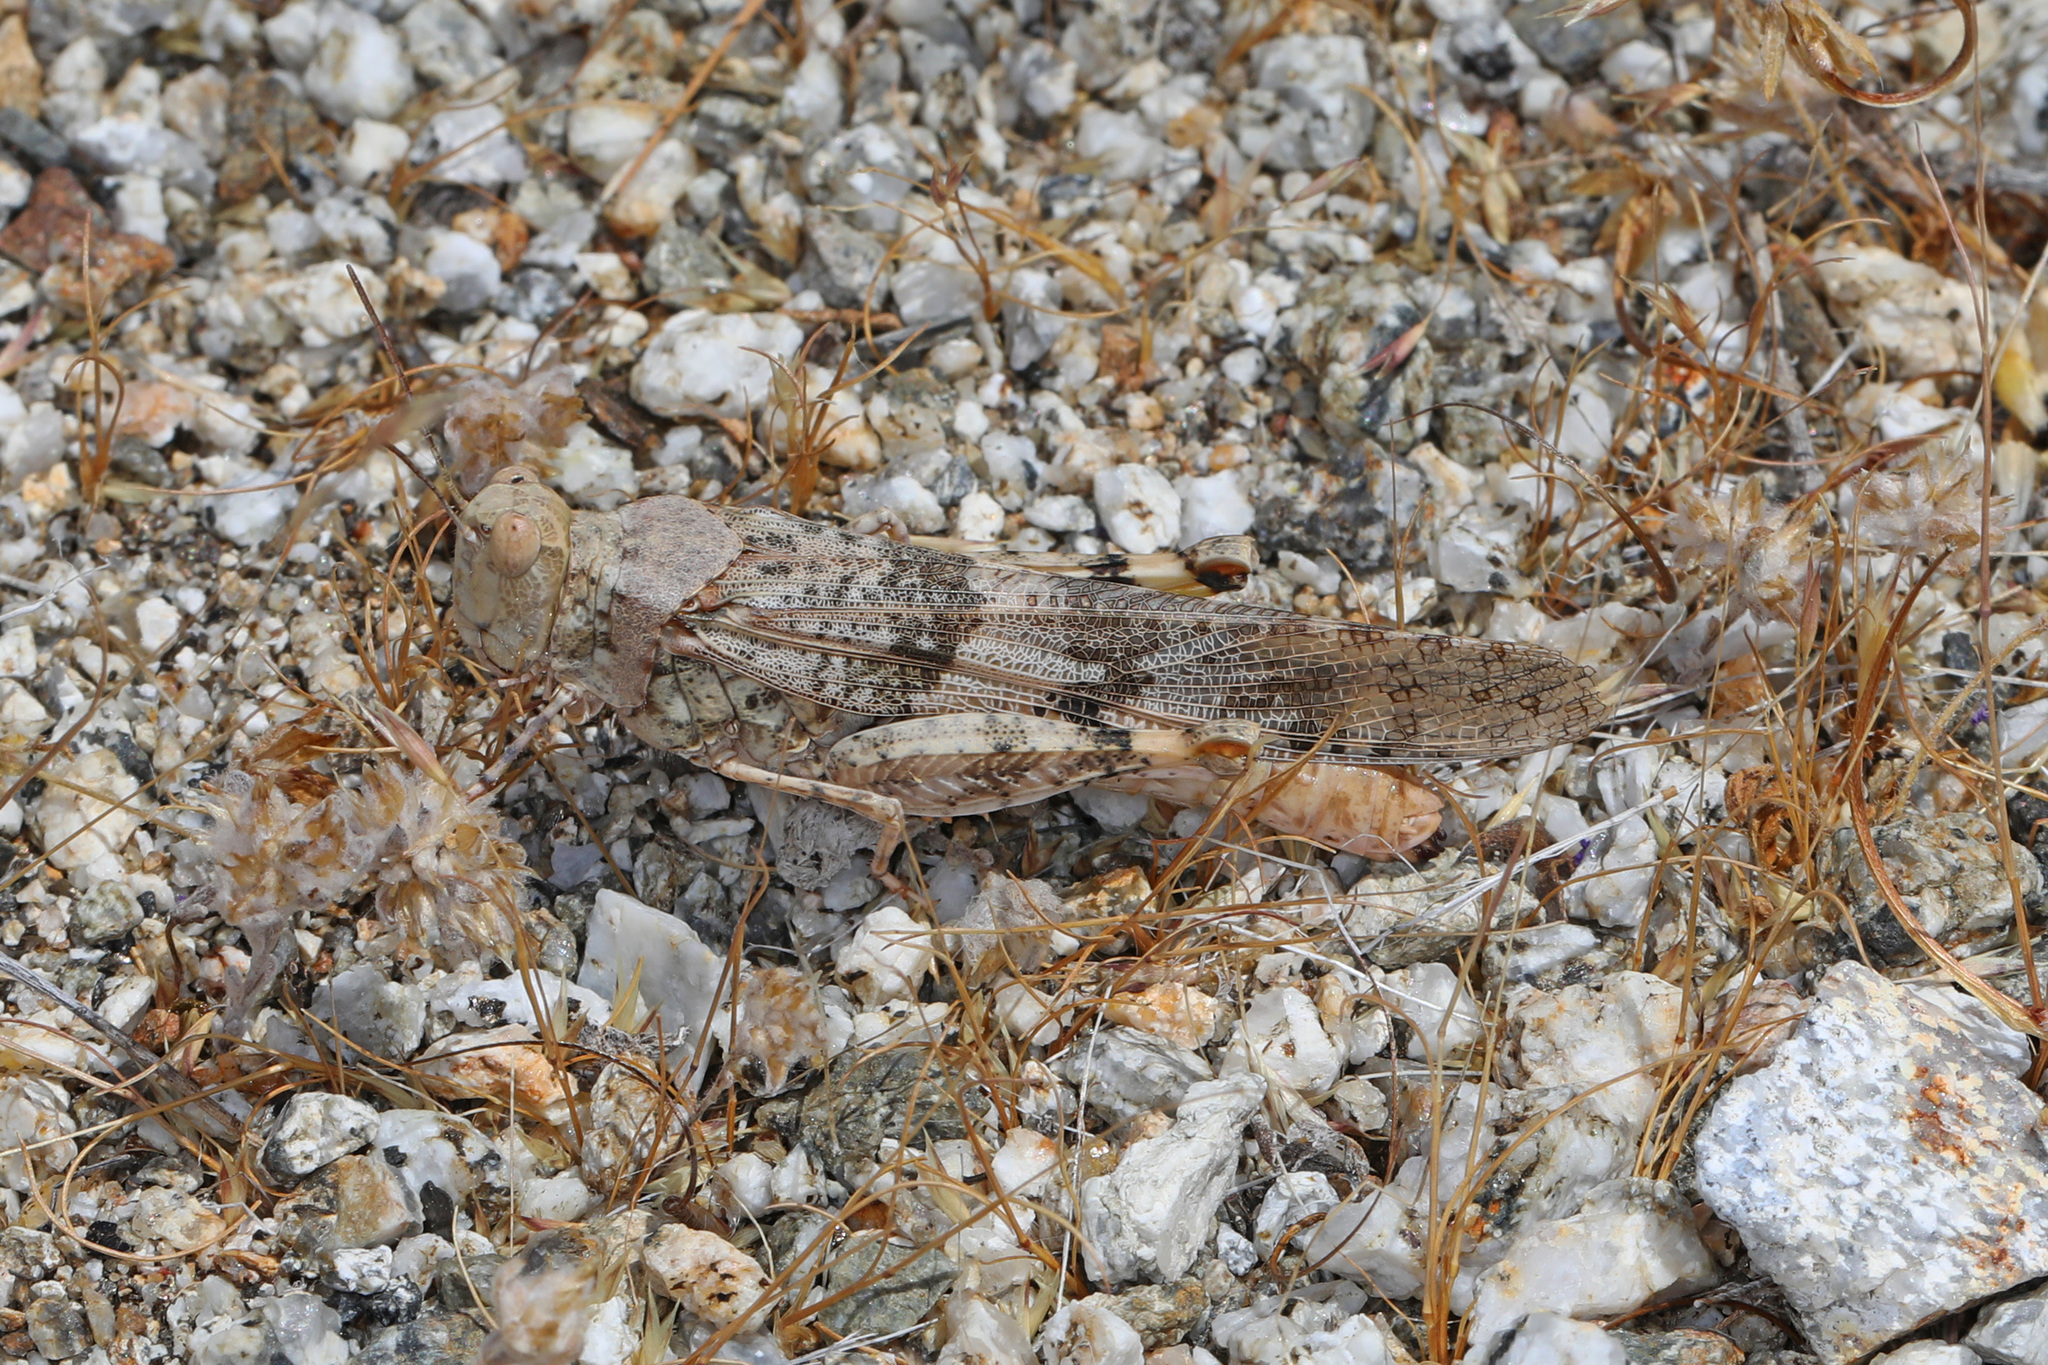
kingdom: Animalia
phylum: Arthropoda
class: Insecta
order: Orthoptera
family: Acrididae
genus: Trimerotropis
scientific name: Trimerotropis pallidipennis
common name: Pallid-winged grasshopper
